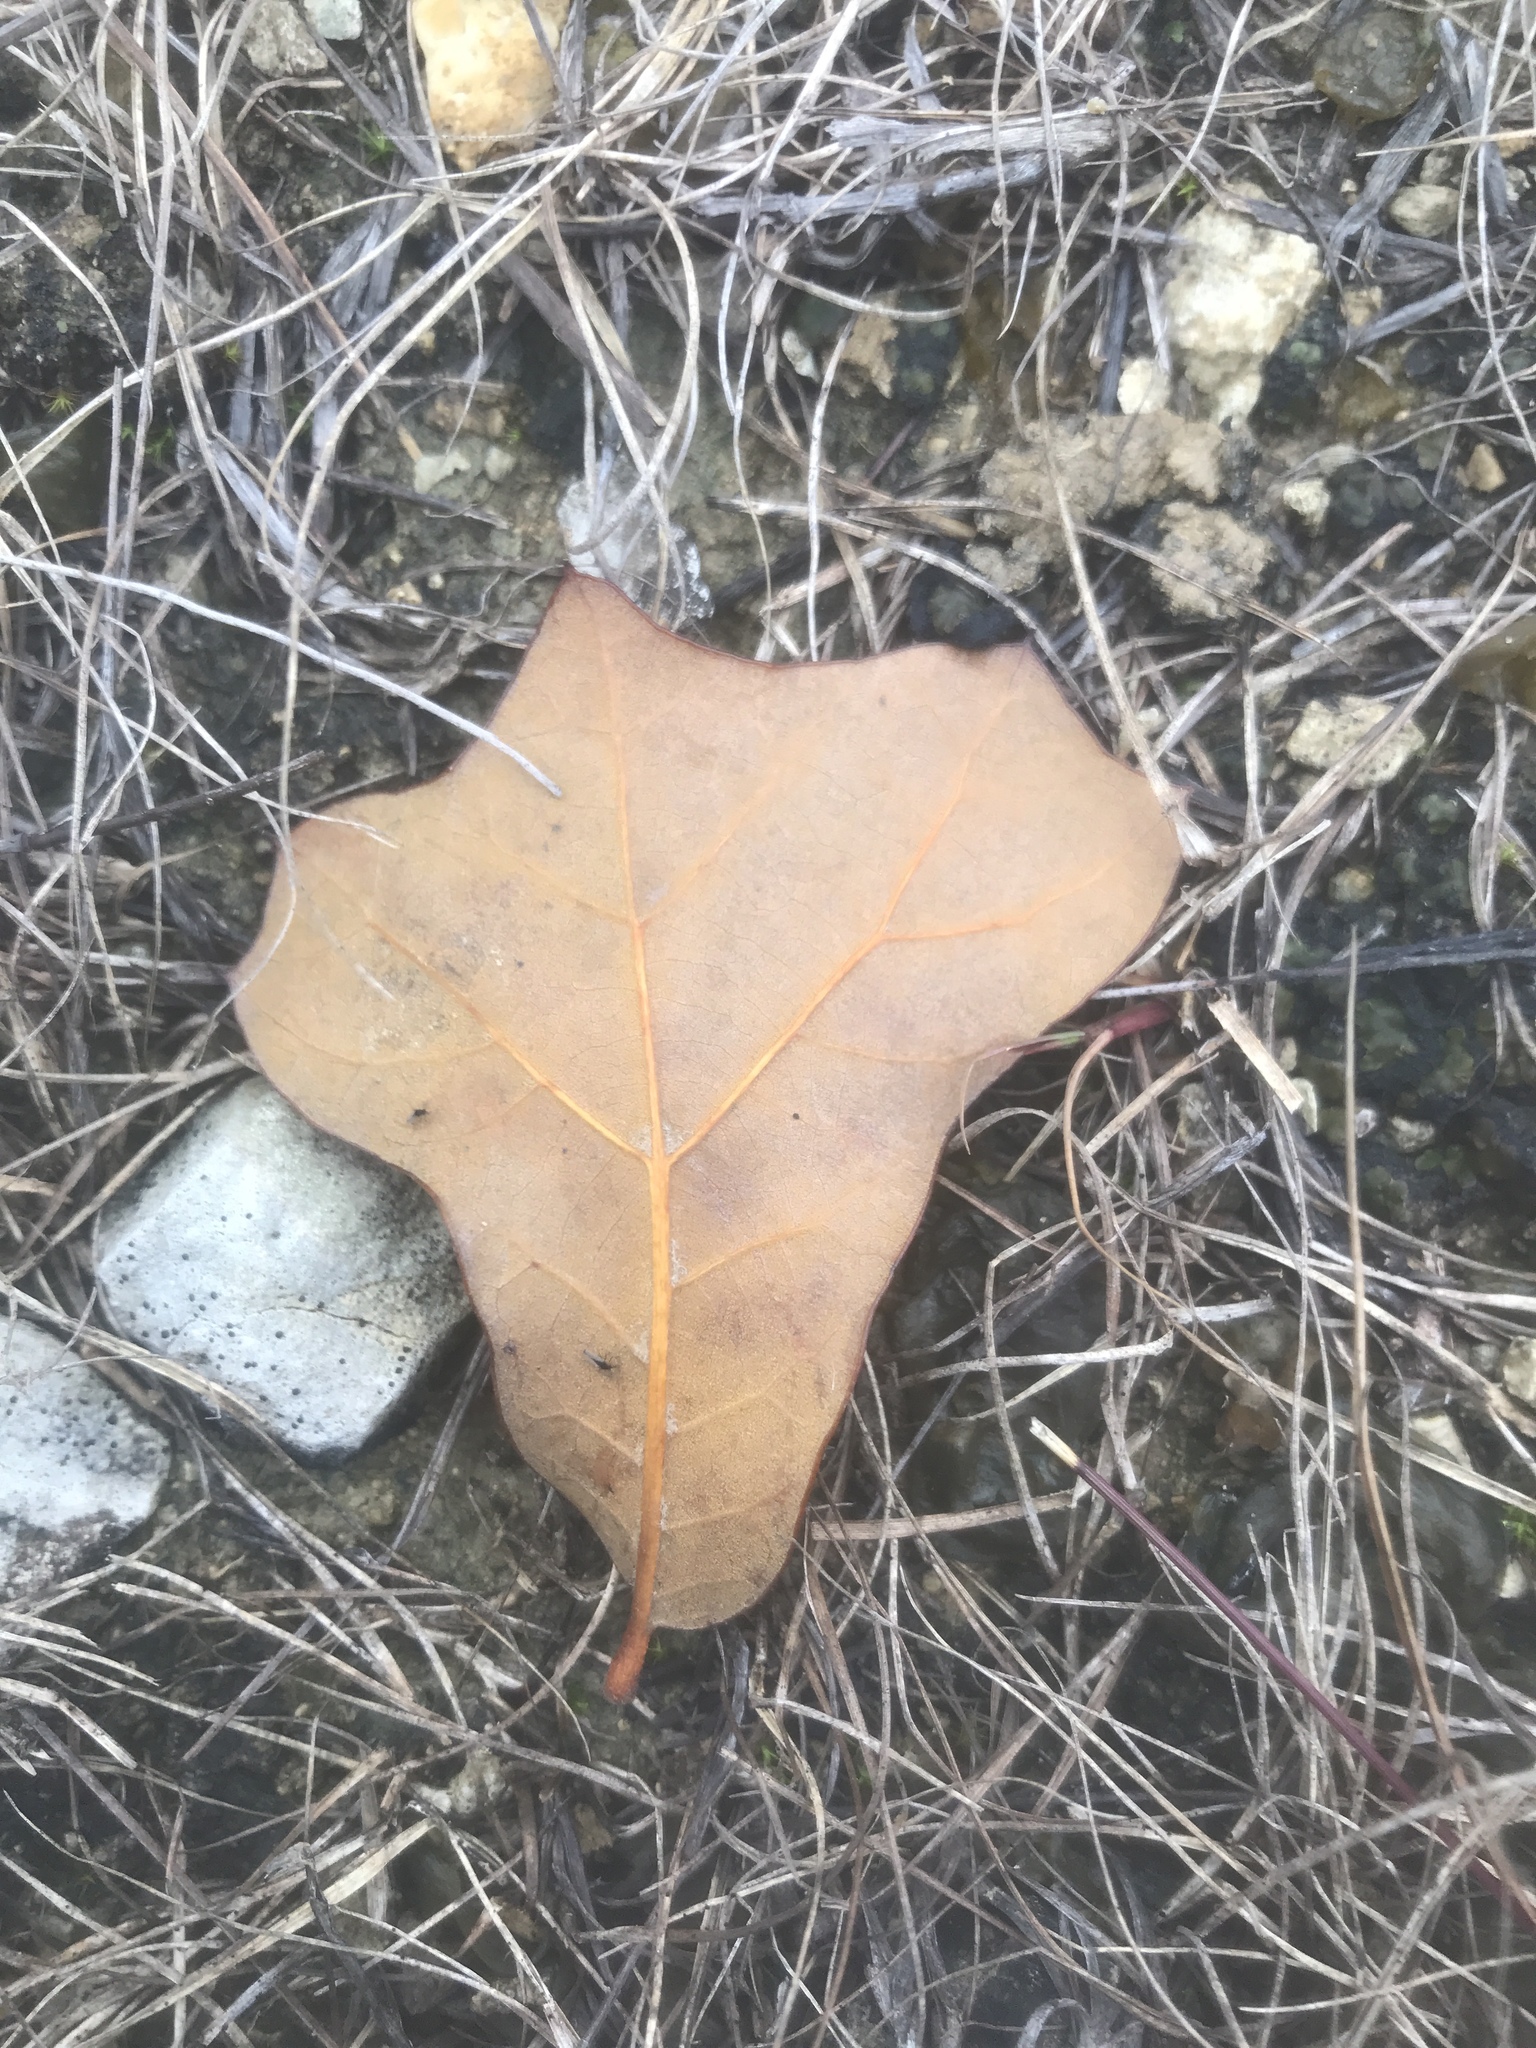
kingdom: Plantae
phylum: Tracheophyta
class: Magnoliopsida
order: Fagales
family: Fagaceae
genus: Quercus
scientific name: Quercus marilandica
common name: Blackjack oak
